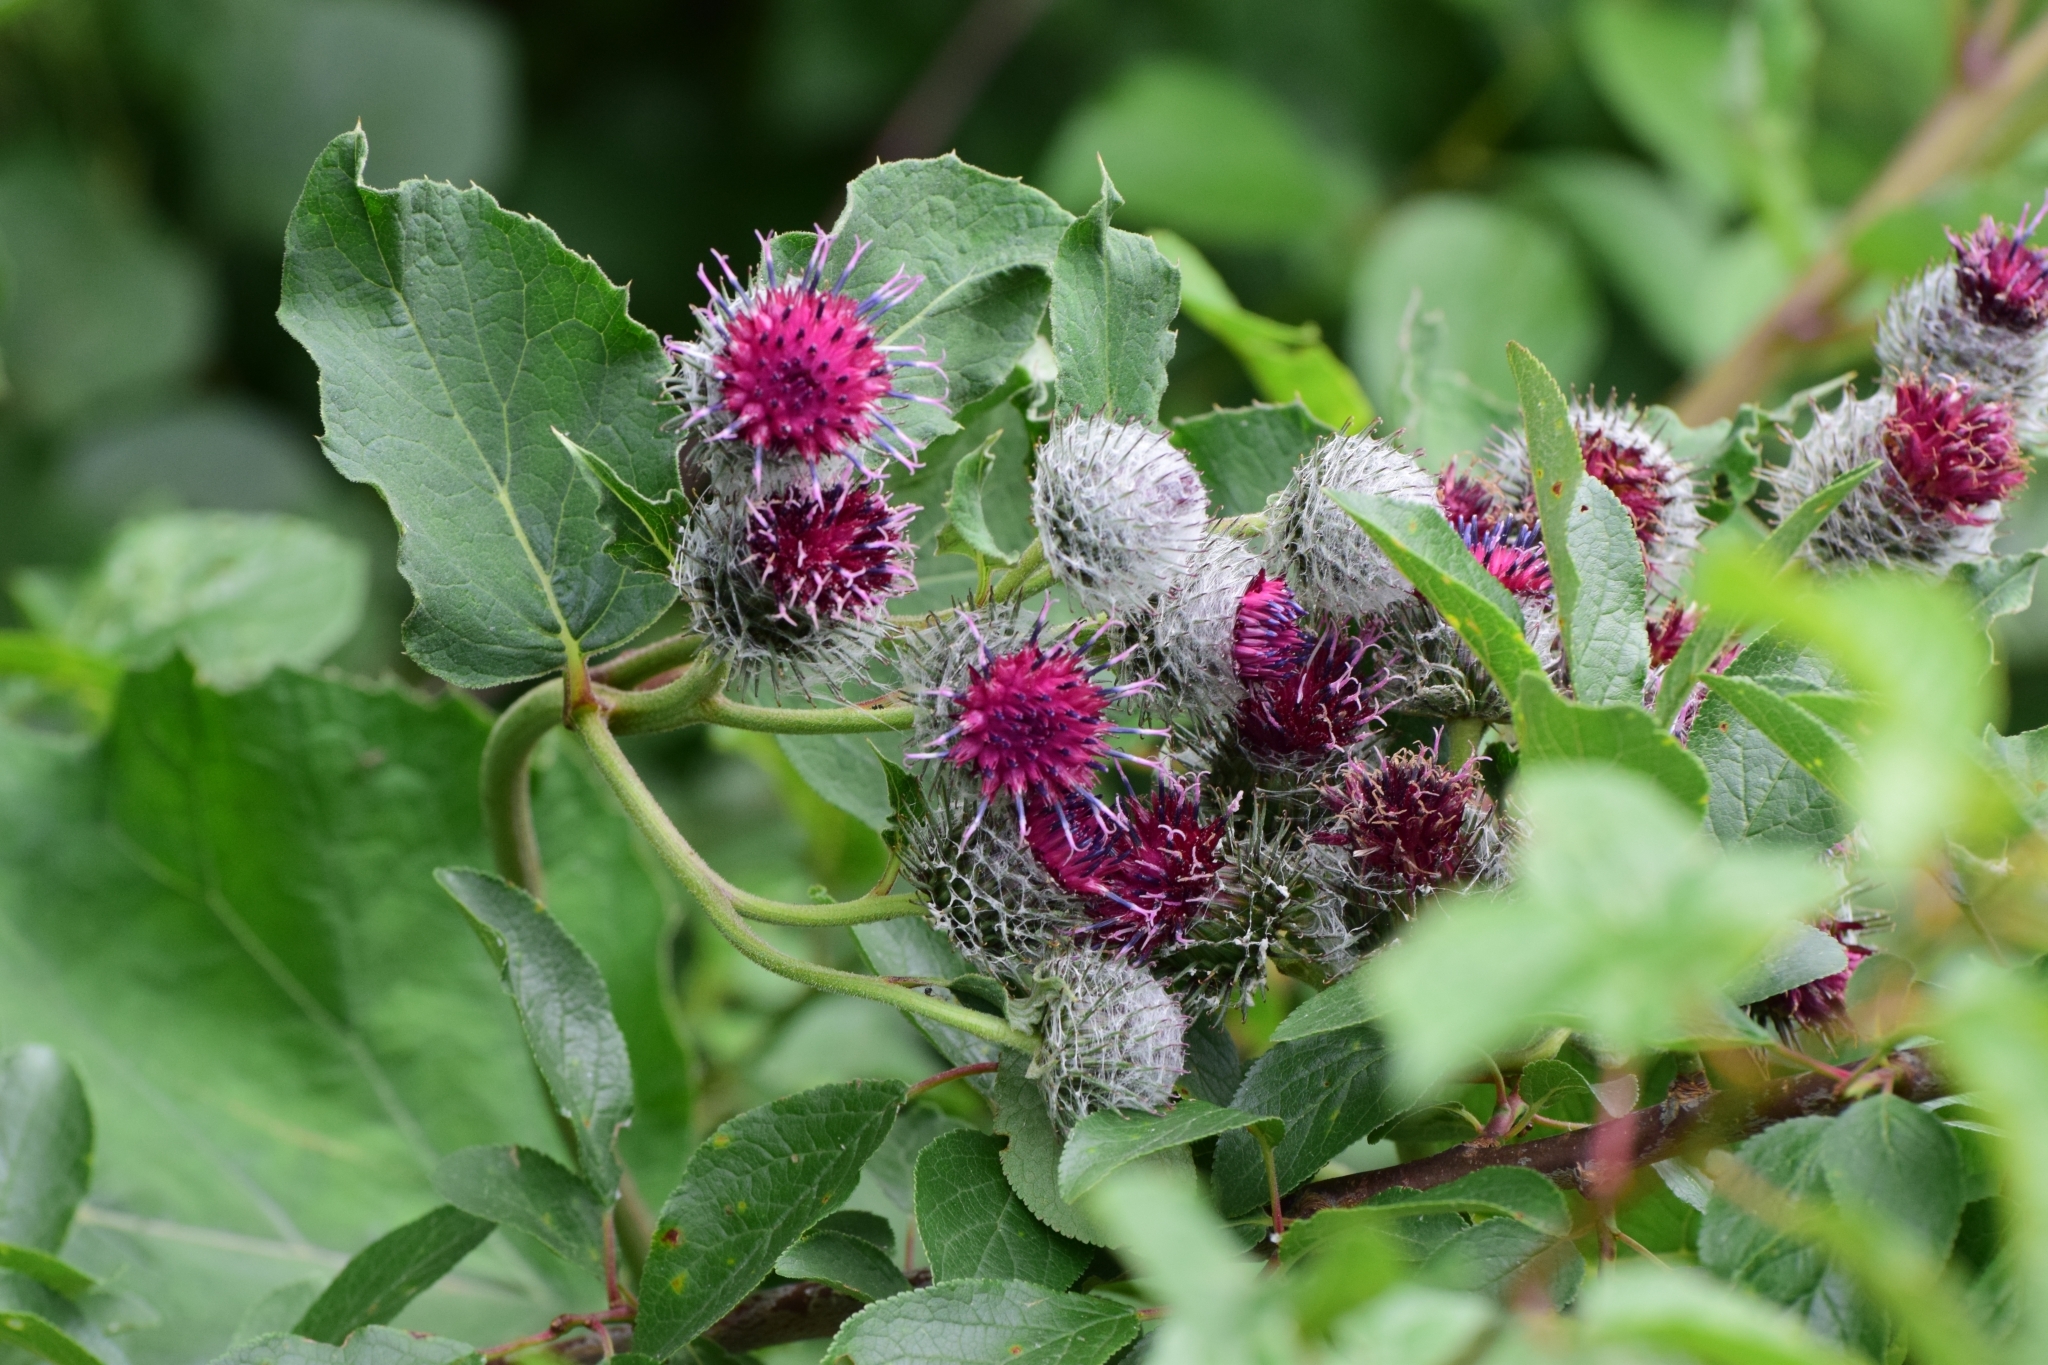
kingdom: Plantae
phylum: Tracheophyta
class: Magnoliopsida
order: Asterales
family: Asteraceae
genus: Arctium
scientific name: Arctium tomentosum
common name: Woolly burdock
